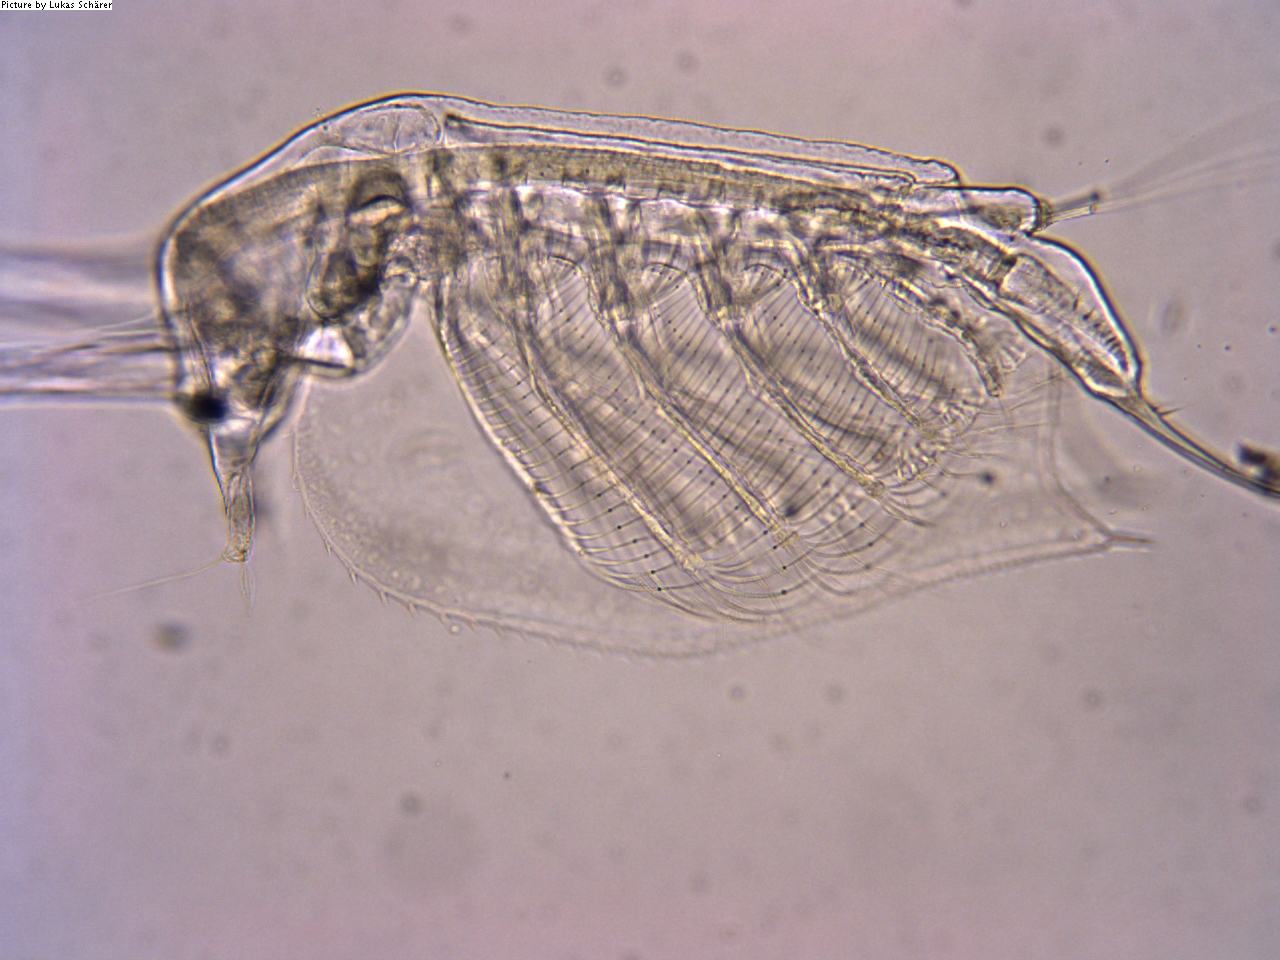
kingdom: Animalia
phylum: Arthropoda
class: Branchiopoda
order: Diplostraca
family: Sididae
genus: Penilia
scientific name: Penilia avirostris
